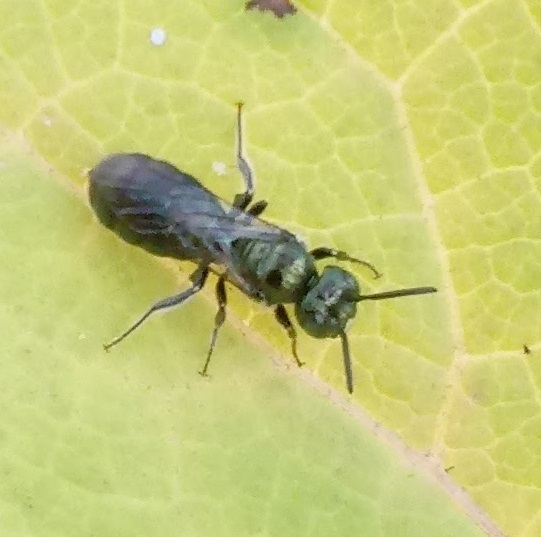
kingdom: Animalia
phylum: Arthropoda
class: Insecta
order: Hymenoptera
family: Apidae
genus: Ceratina
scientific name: Ceratina calcarata
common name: Spurred carpenter bee
